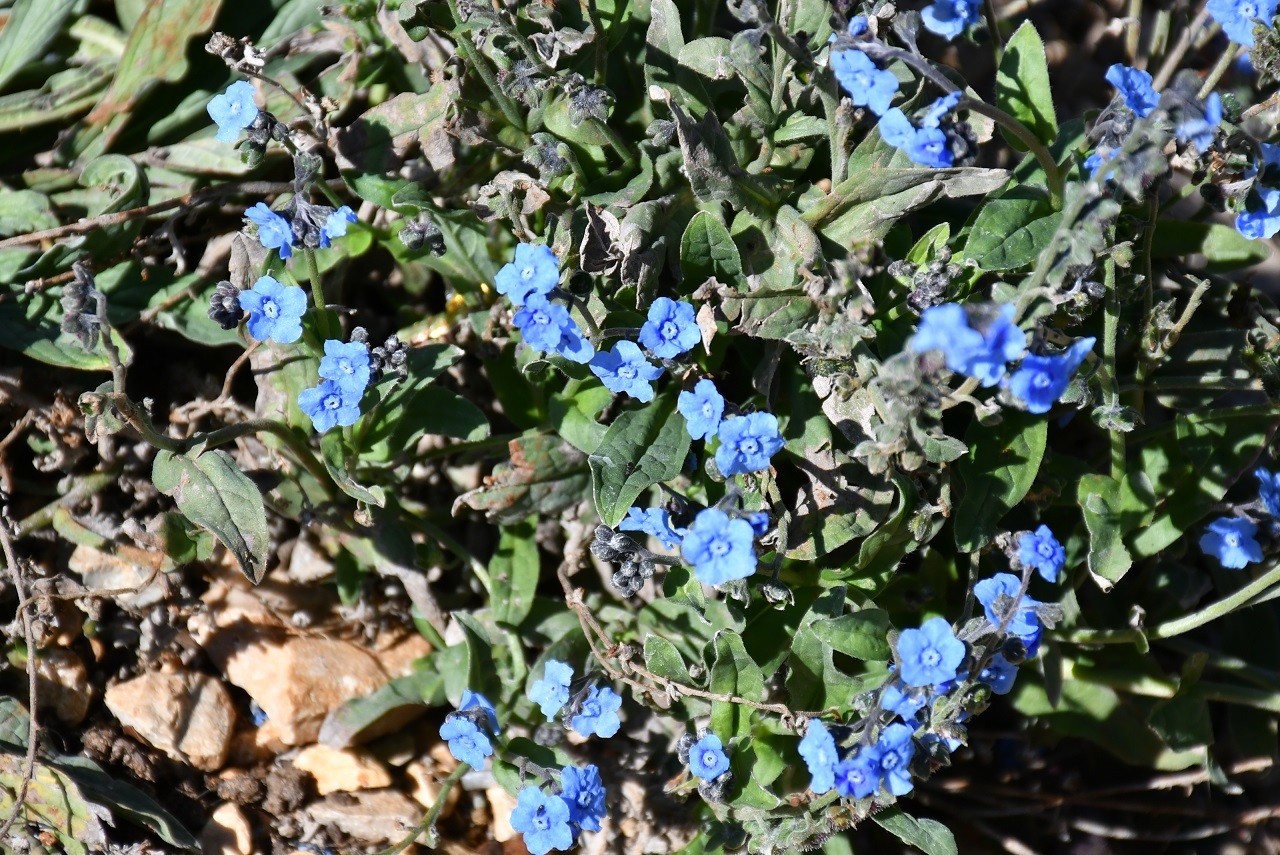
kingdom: Plantae
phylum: Tracheophyta
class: Magnoliopsida
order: Boraginales
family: Boraginaceae
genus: Cynoglossum
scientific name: Cynoglossum amabile
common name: Chinese hound's tongue
